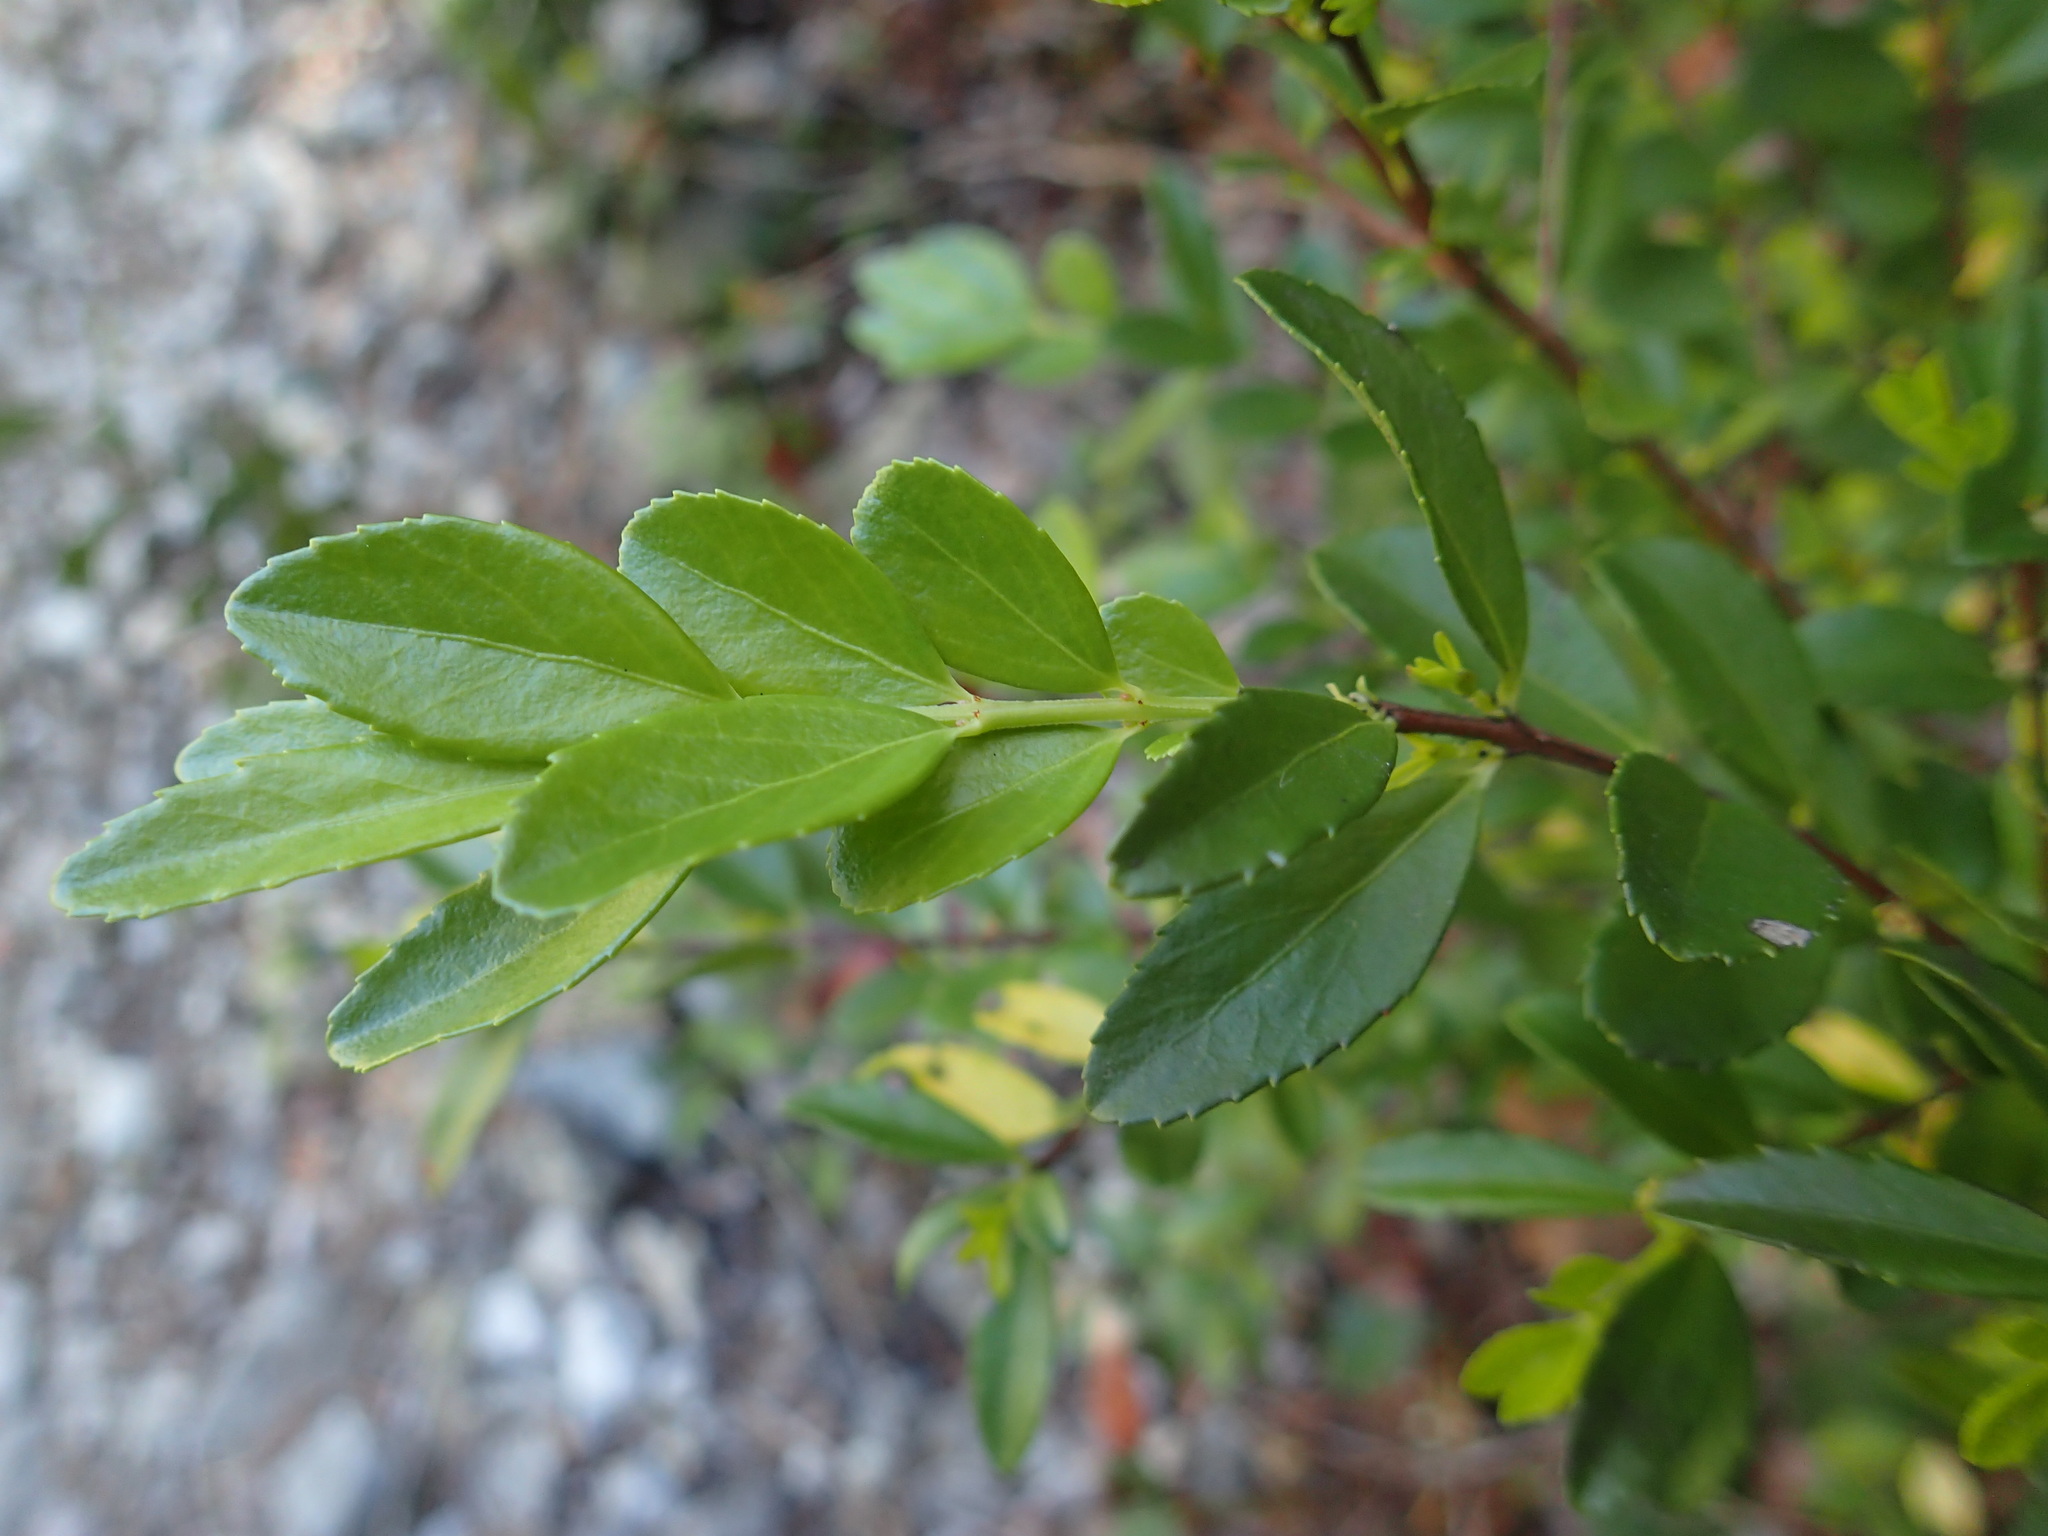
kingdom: Plantae
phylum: Tracheophyta
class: Magnoliopsida
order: Celastrales
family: Celastraceae
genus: Paxistima
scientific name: Paxistima myrsinites
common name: Mountain-lover
